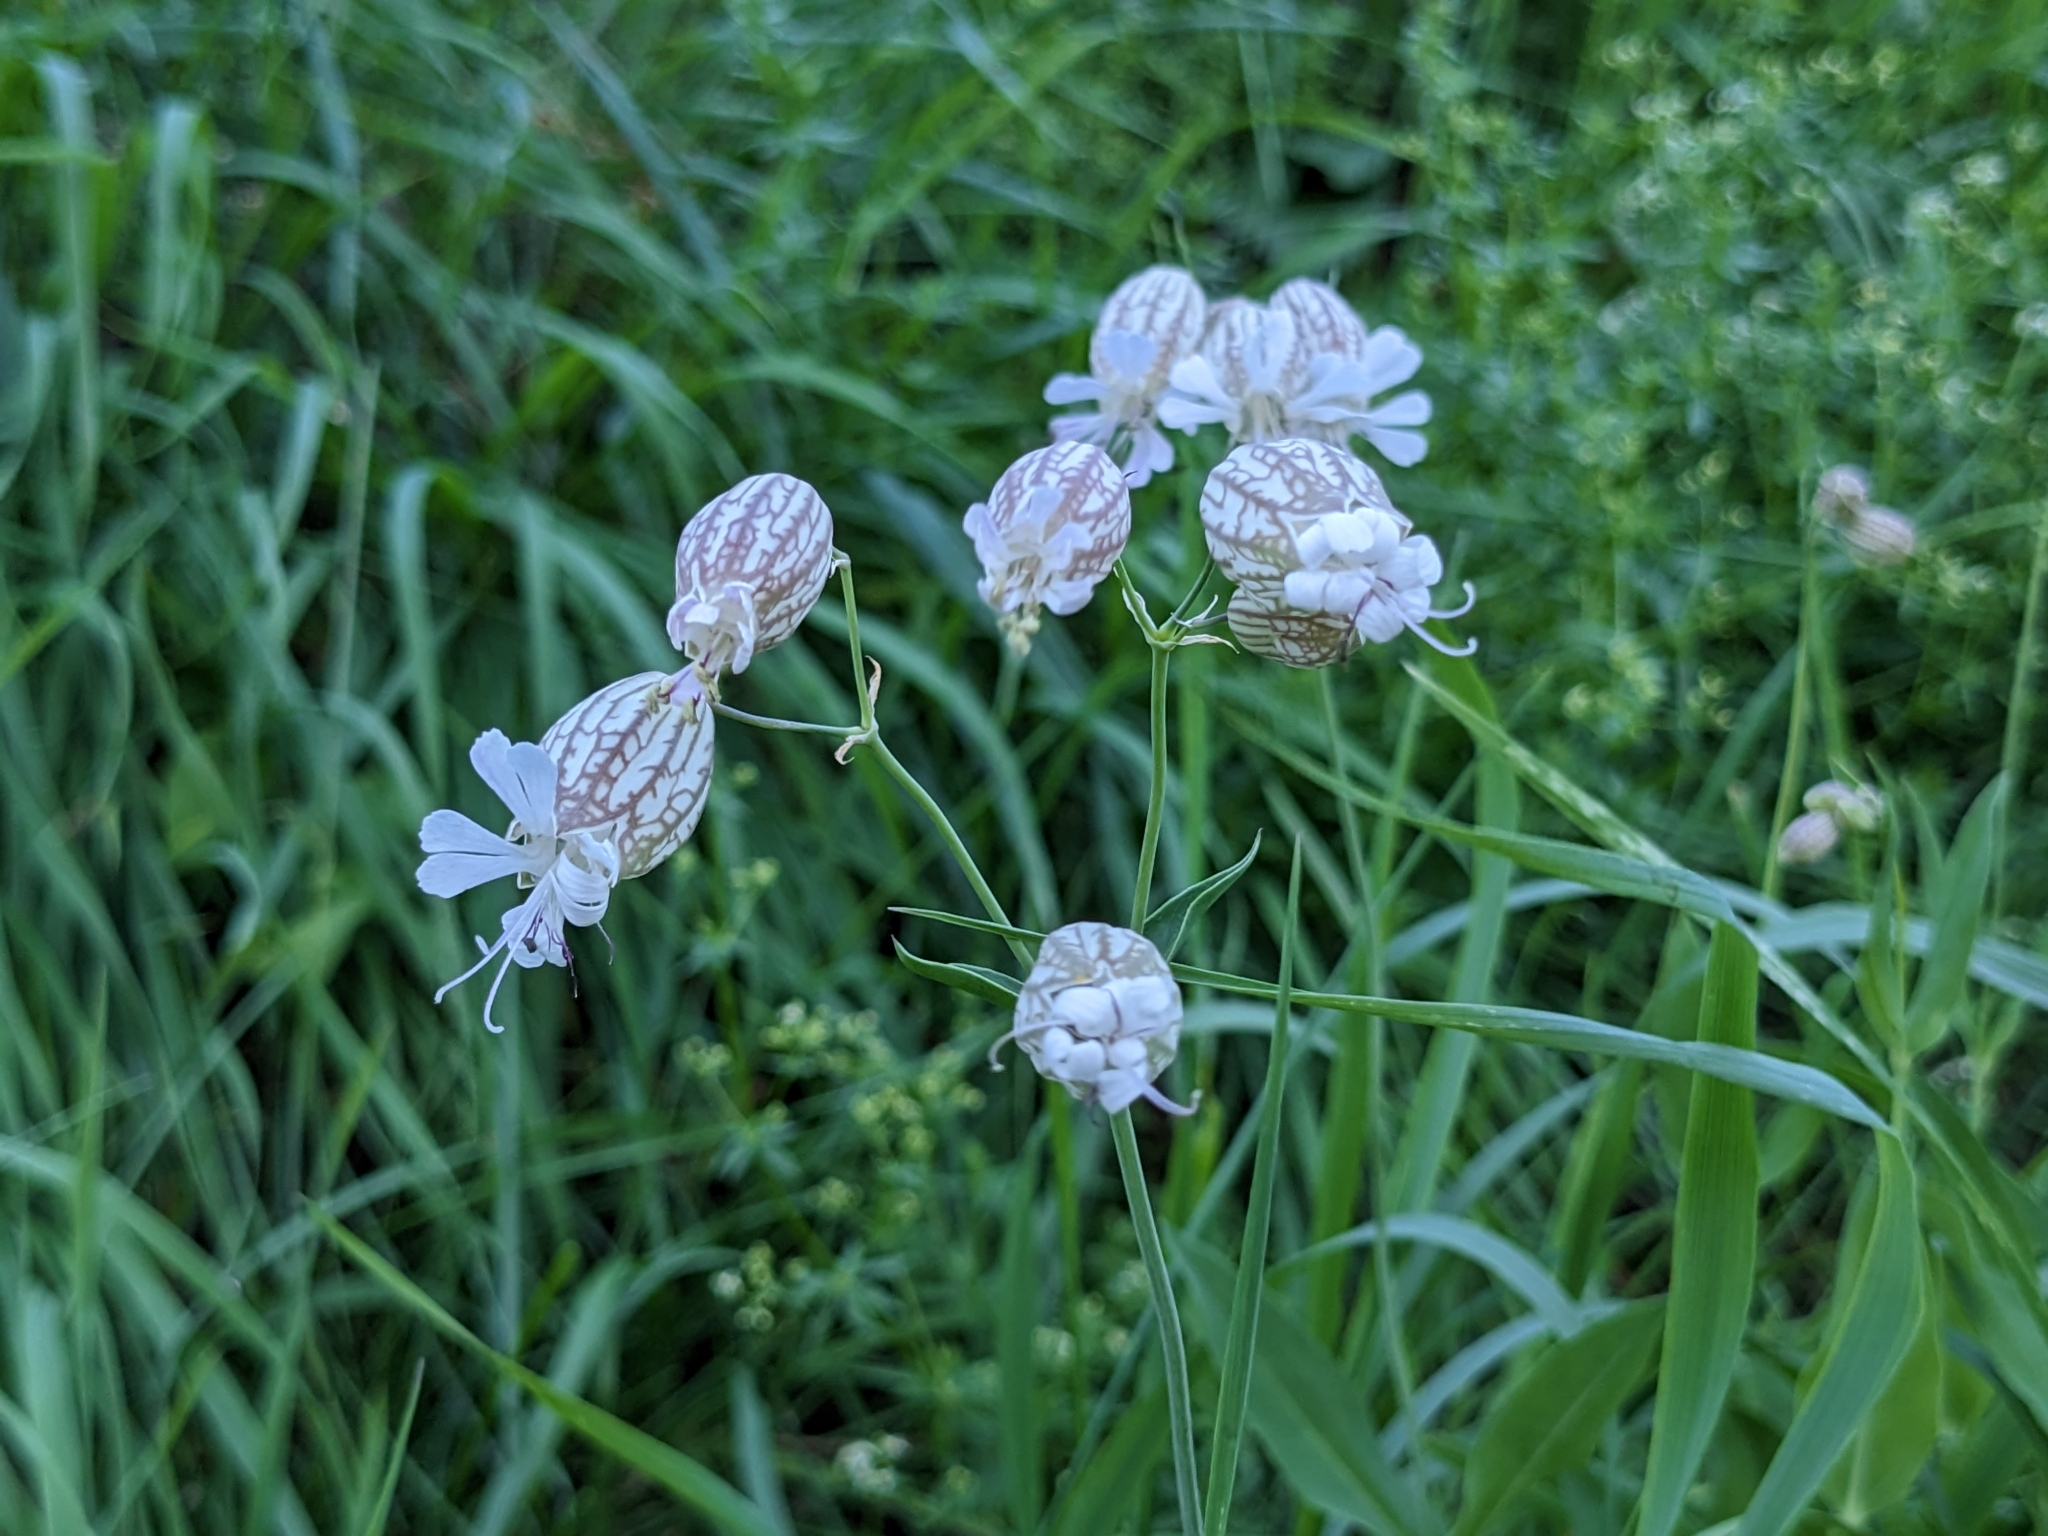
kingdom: Plantae
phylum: Tracheophyta
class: Magnoliopsida
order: Caryophyllales
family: Caryophyllaceae
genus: Silene
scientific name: Silene vulgaris
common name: Bladder campion
